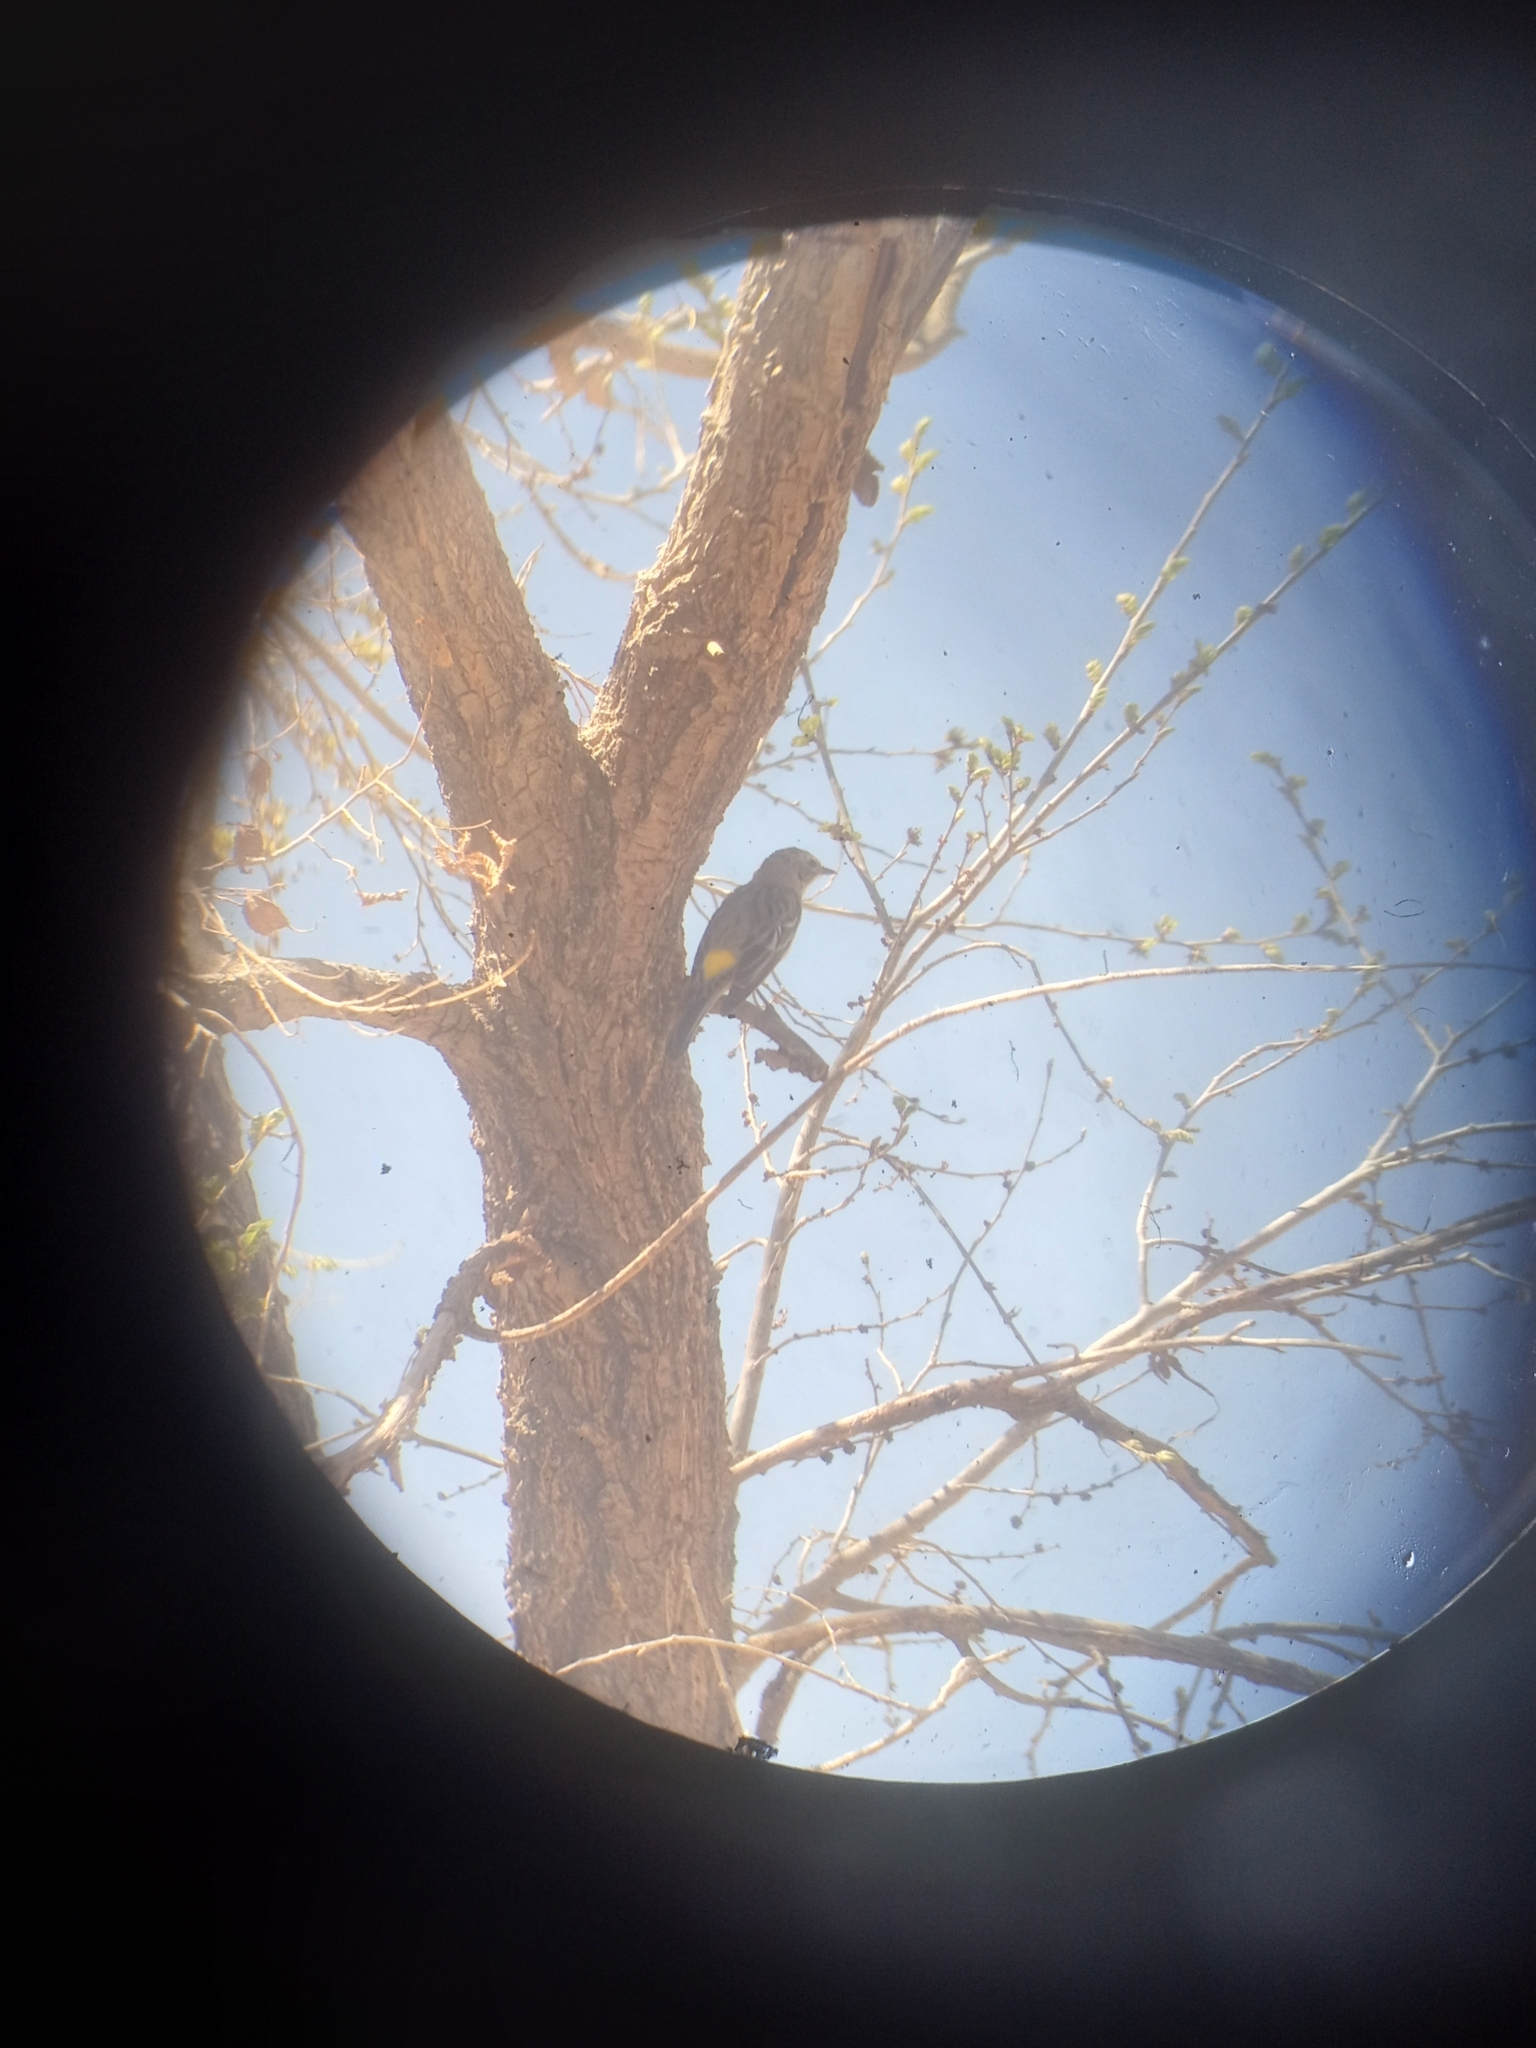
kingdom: Animalia
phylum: Chordata
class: Aves
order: Passeriformes
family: Parulidae
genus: Setophaga
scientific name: Setophaga coronata
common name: Myrtle warbler
